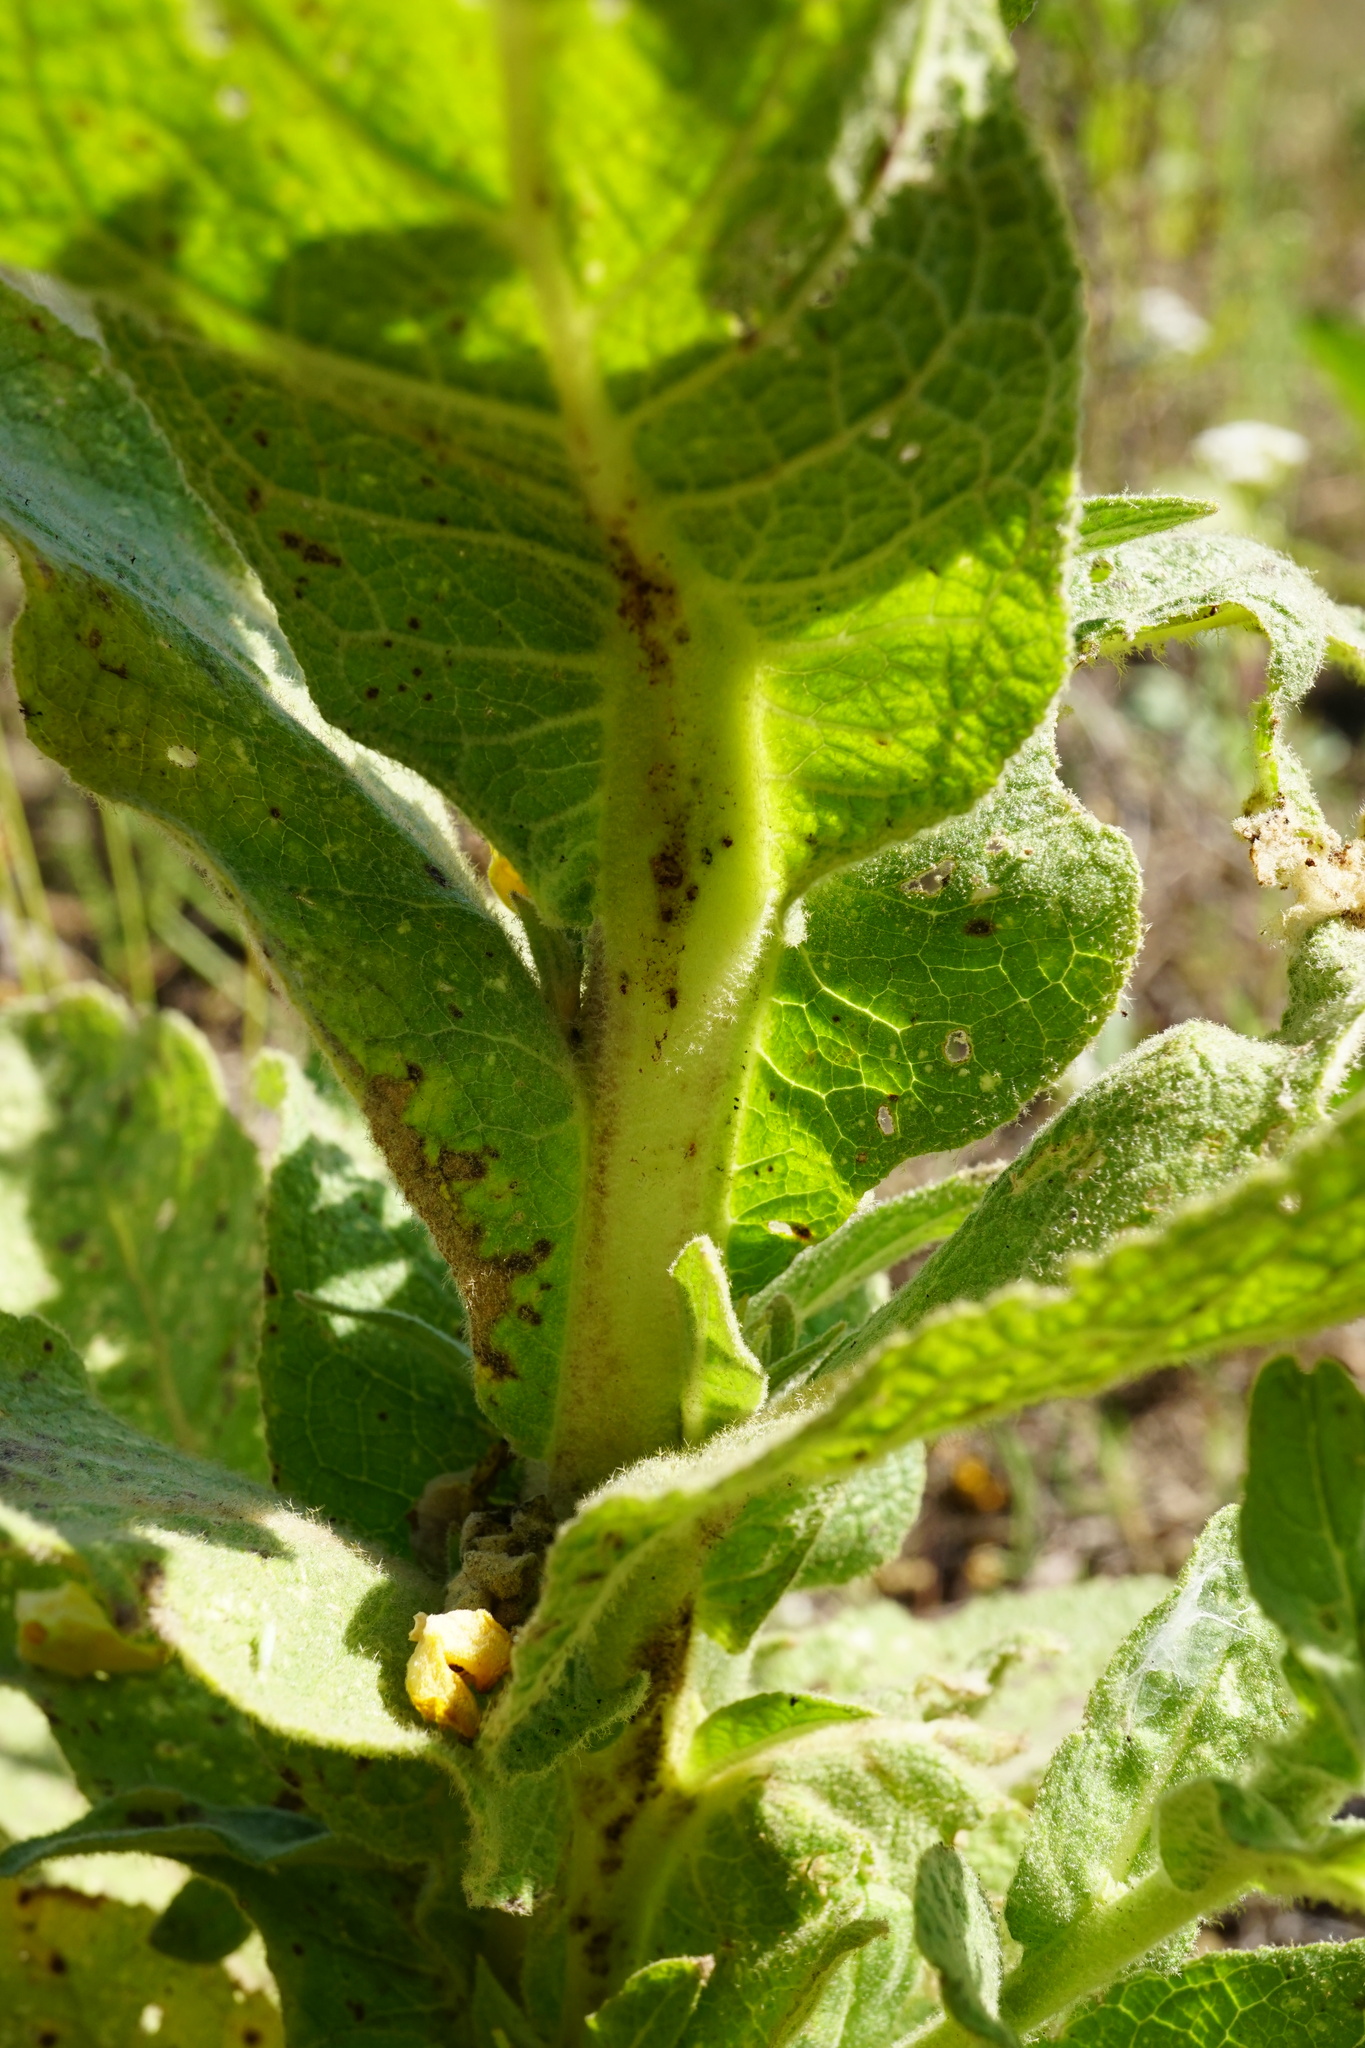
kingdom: Plantae
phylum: Tracheophyta
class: Magnoliopsida
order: Lamiales
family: Scrophulariaceae
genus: Verbascum
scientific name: Verbascum densiflorum
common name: Dense-flowered mullein
